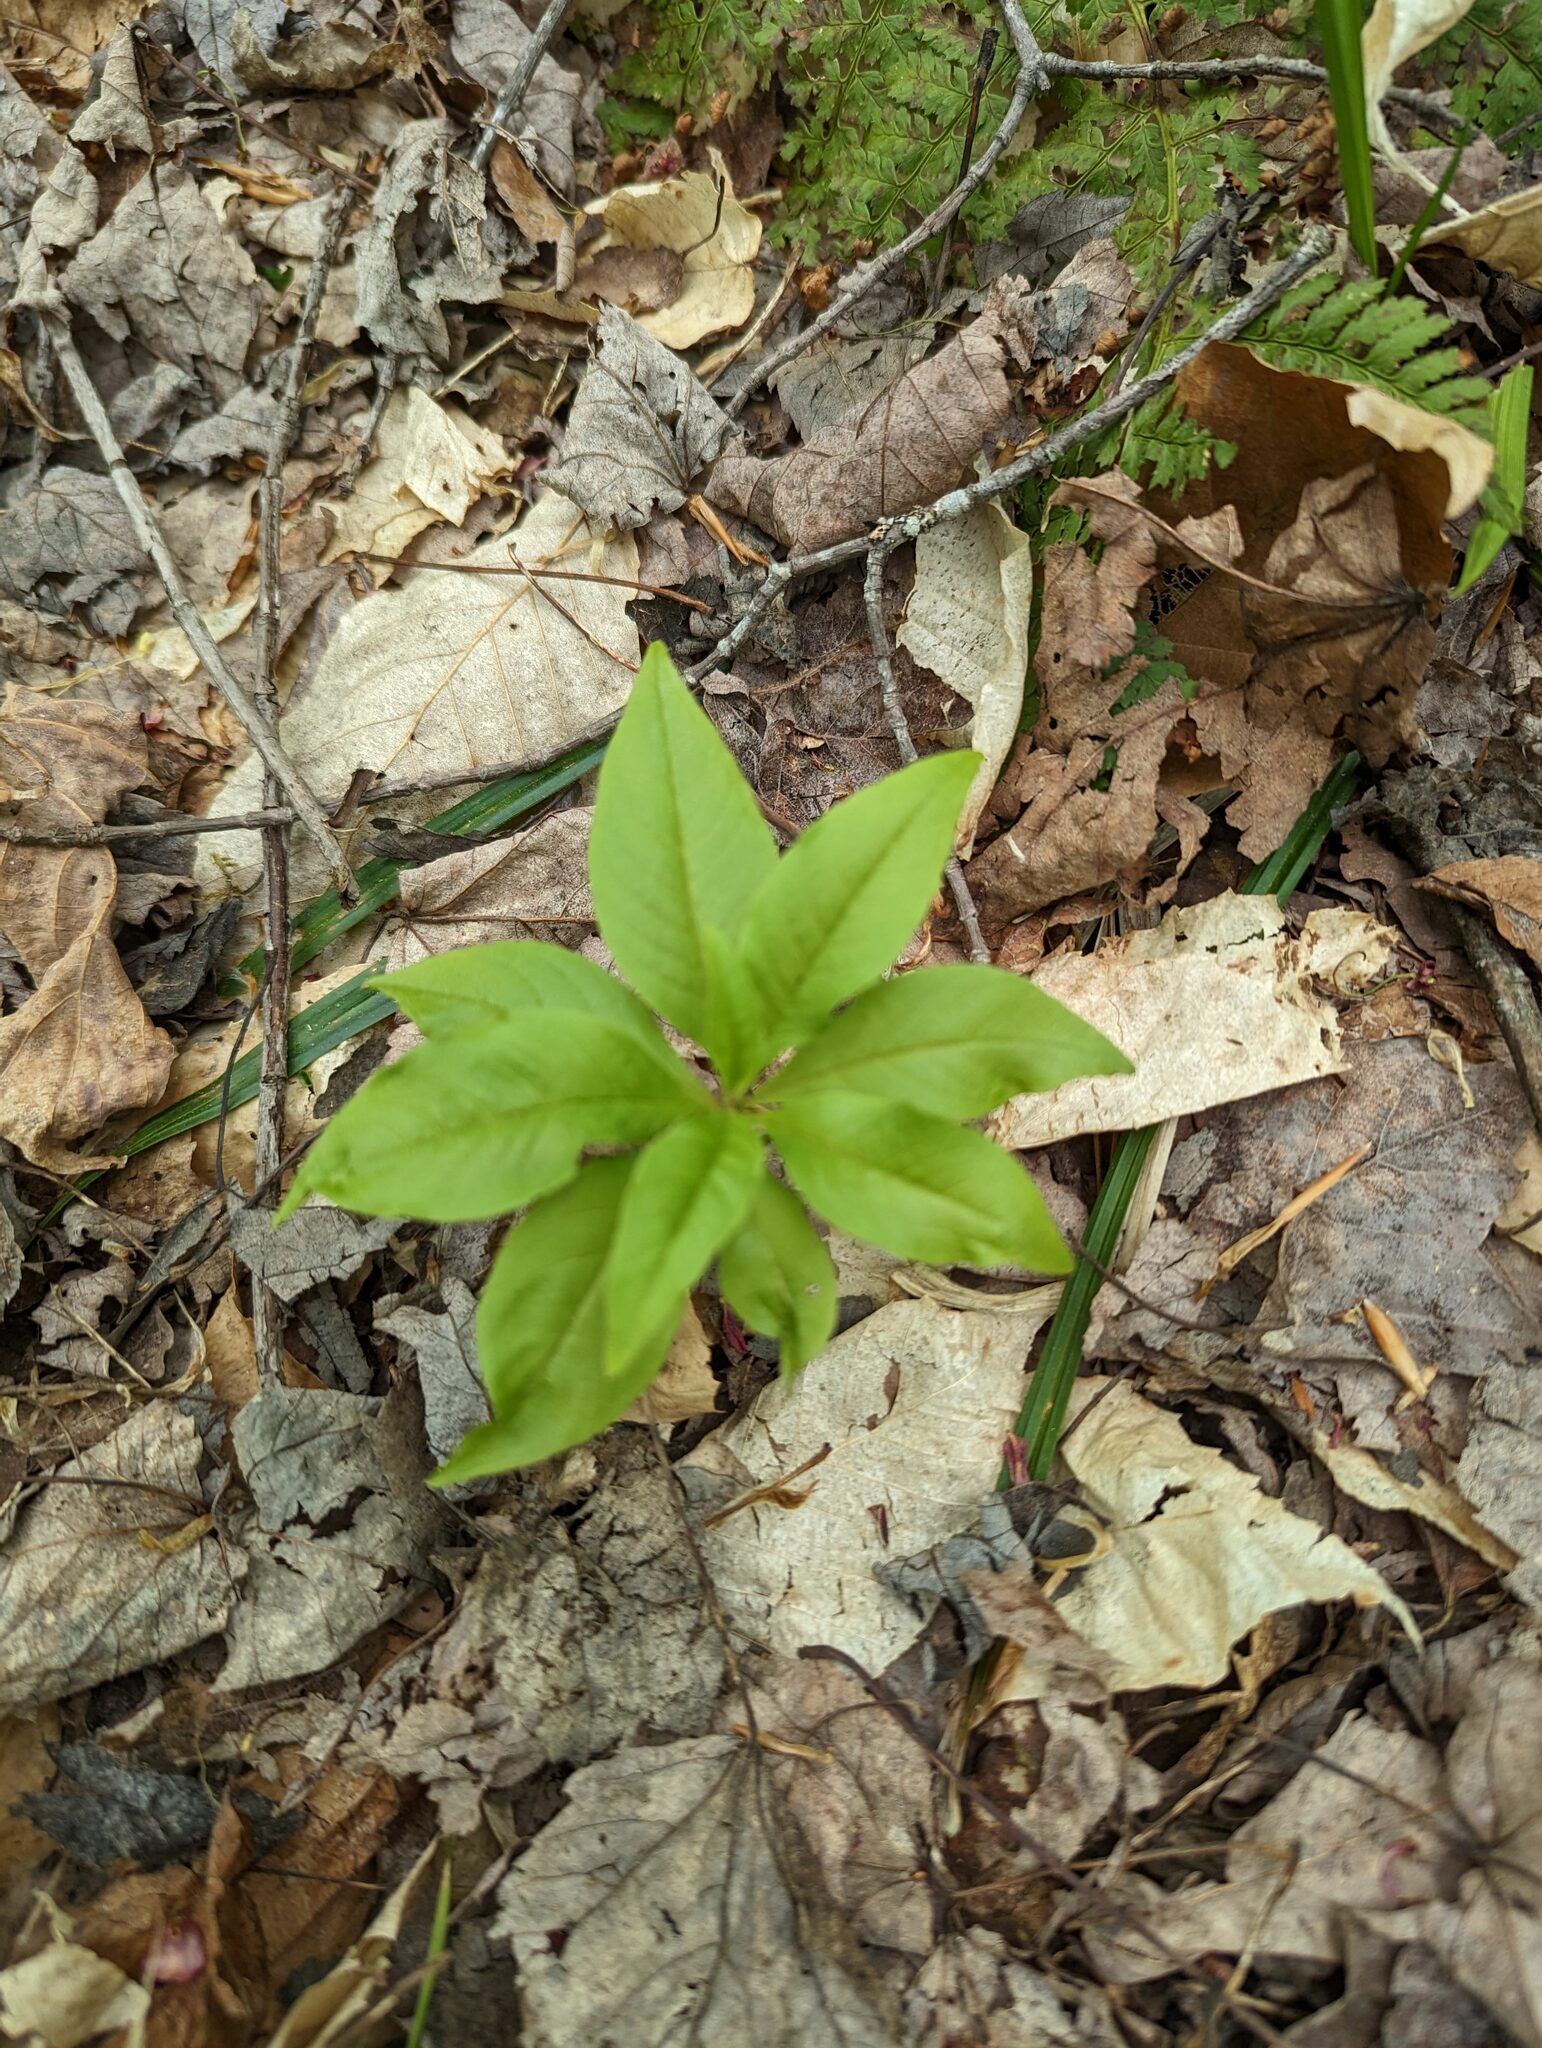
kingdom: Plantae
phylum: Tracheophyta
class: Magnoliopsida
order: Ericales
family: Primulaceae
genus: Lysimachia
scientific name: Lysimachia borealis
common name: American starflower
